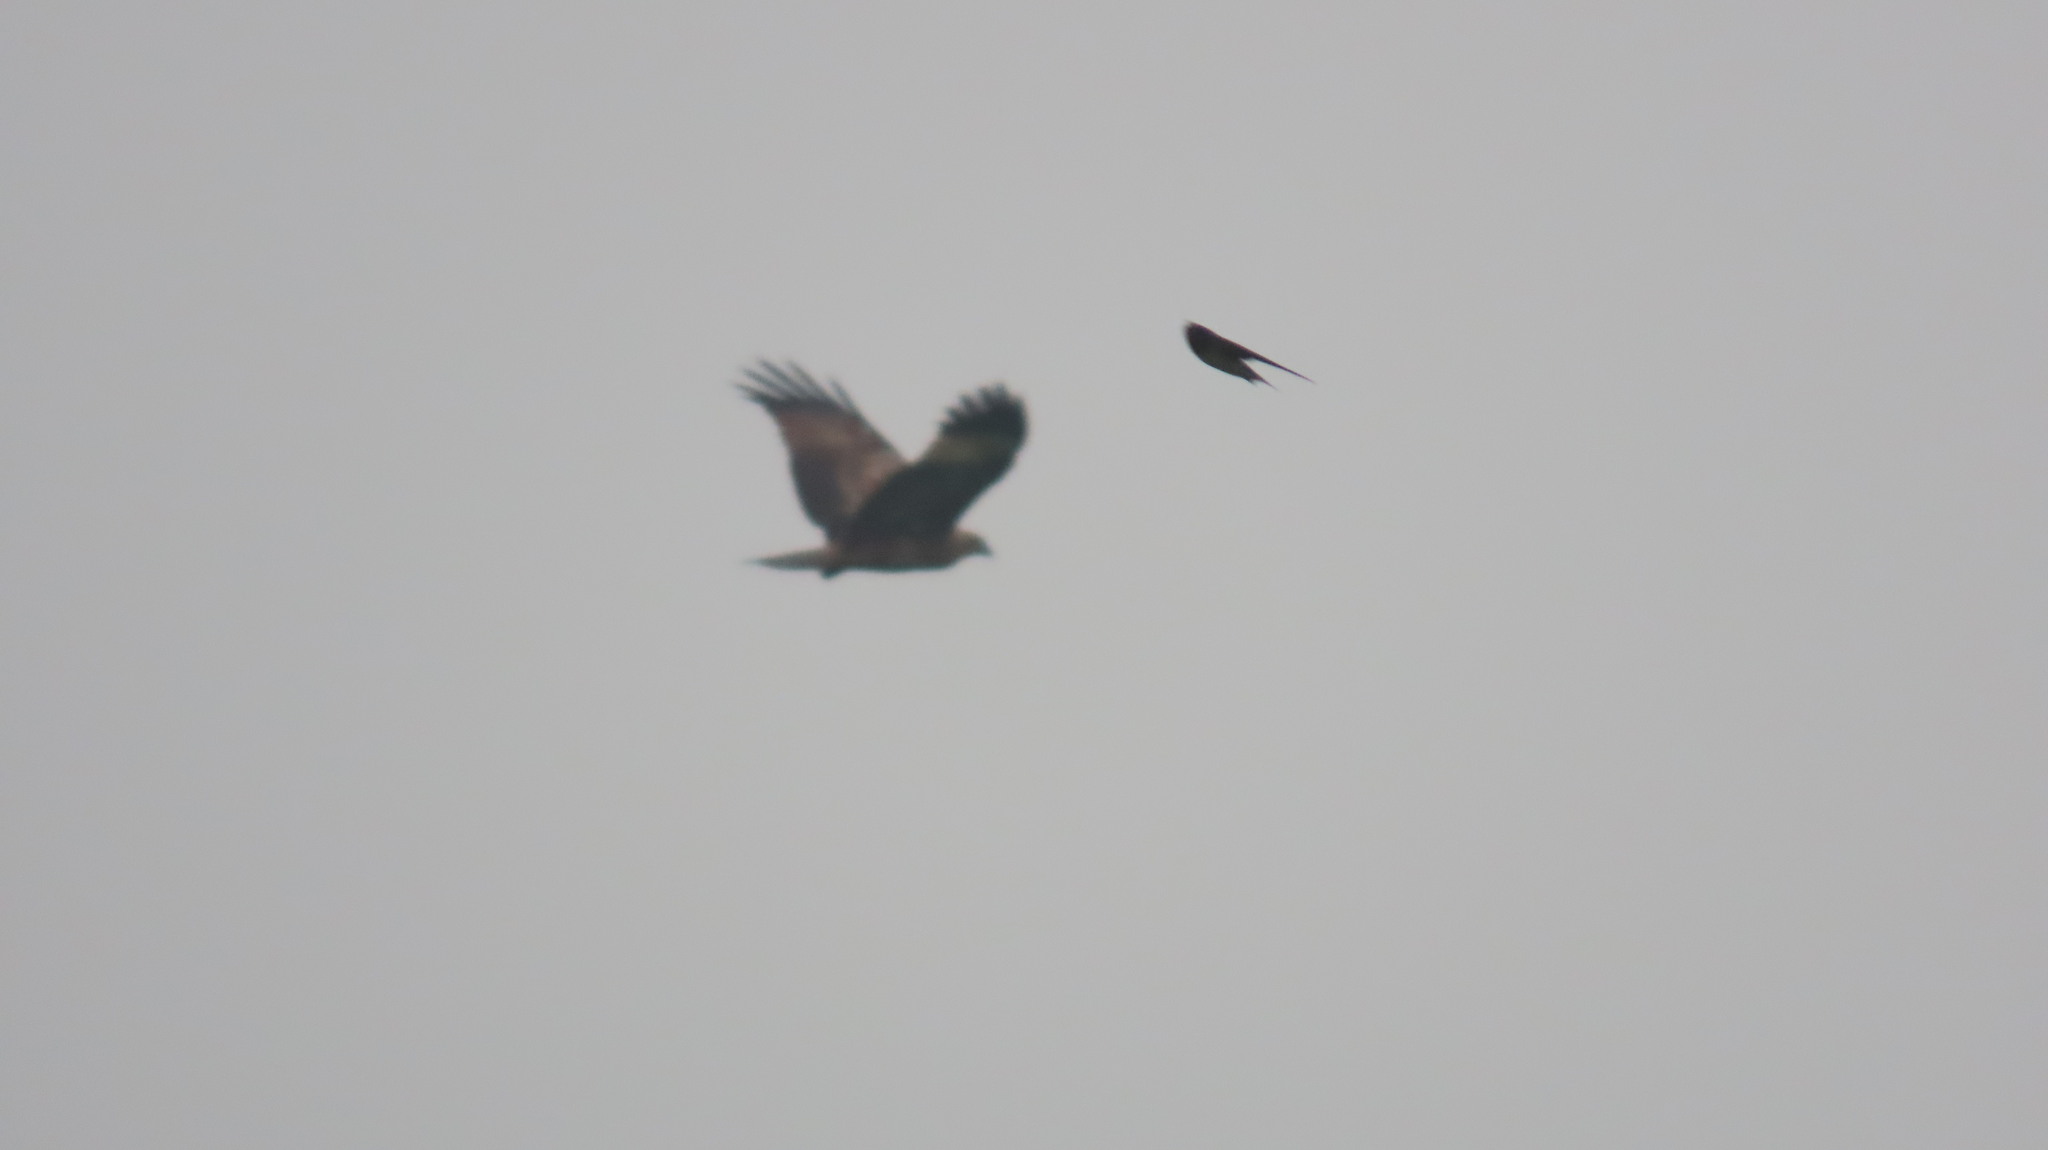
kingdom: Animalia
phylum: Chordata
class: Aves
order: Accipitriformes
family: Accipitridae
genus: Haliastur
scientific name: Haliastur indus
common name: Brahminy kite
